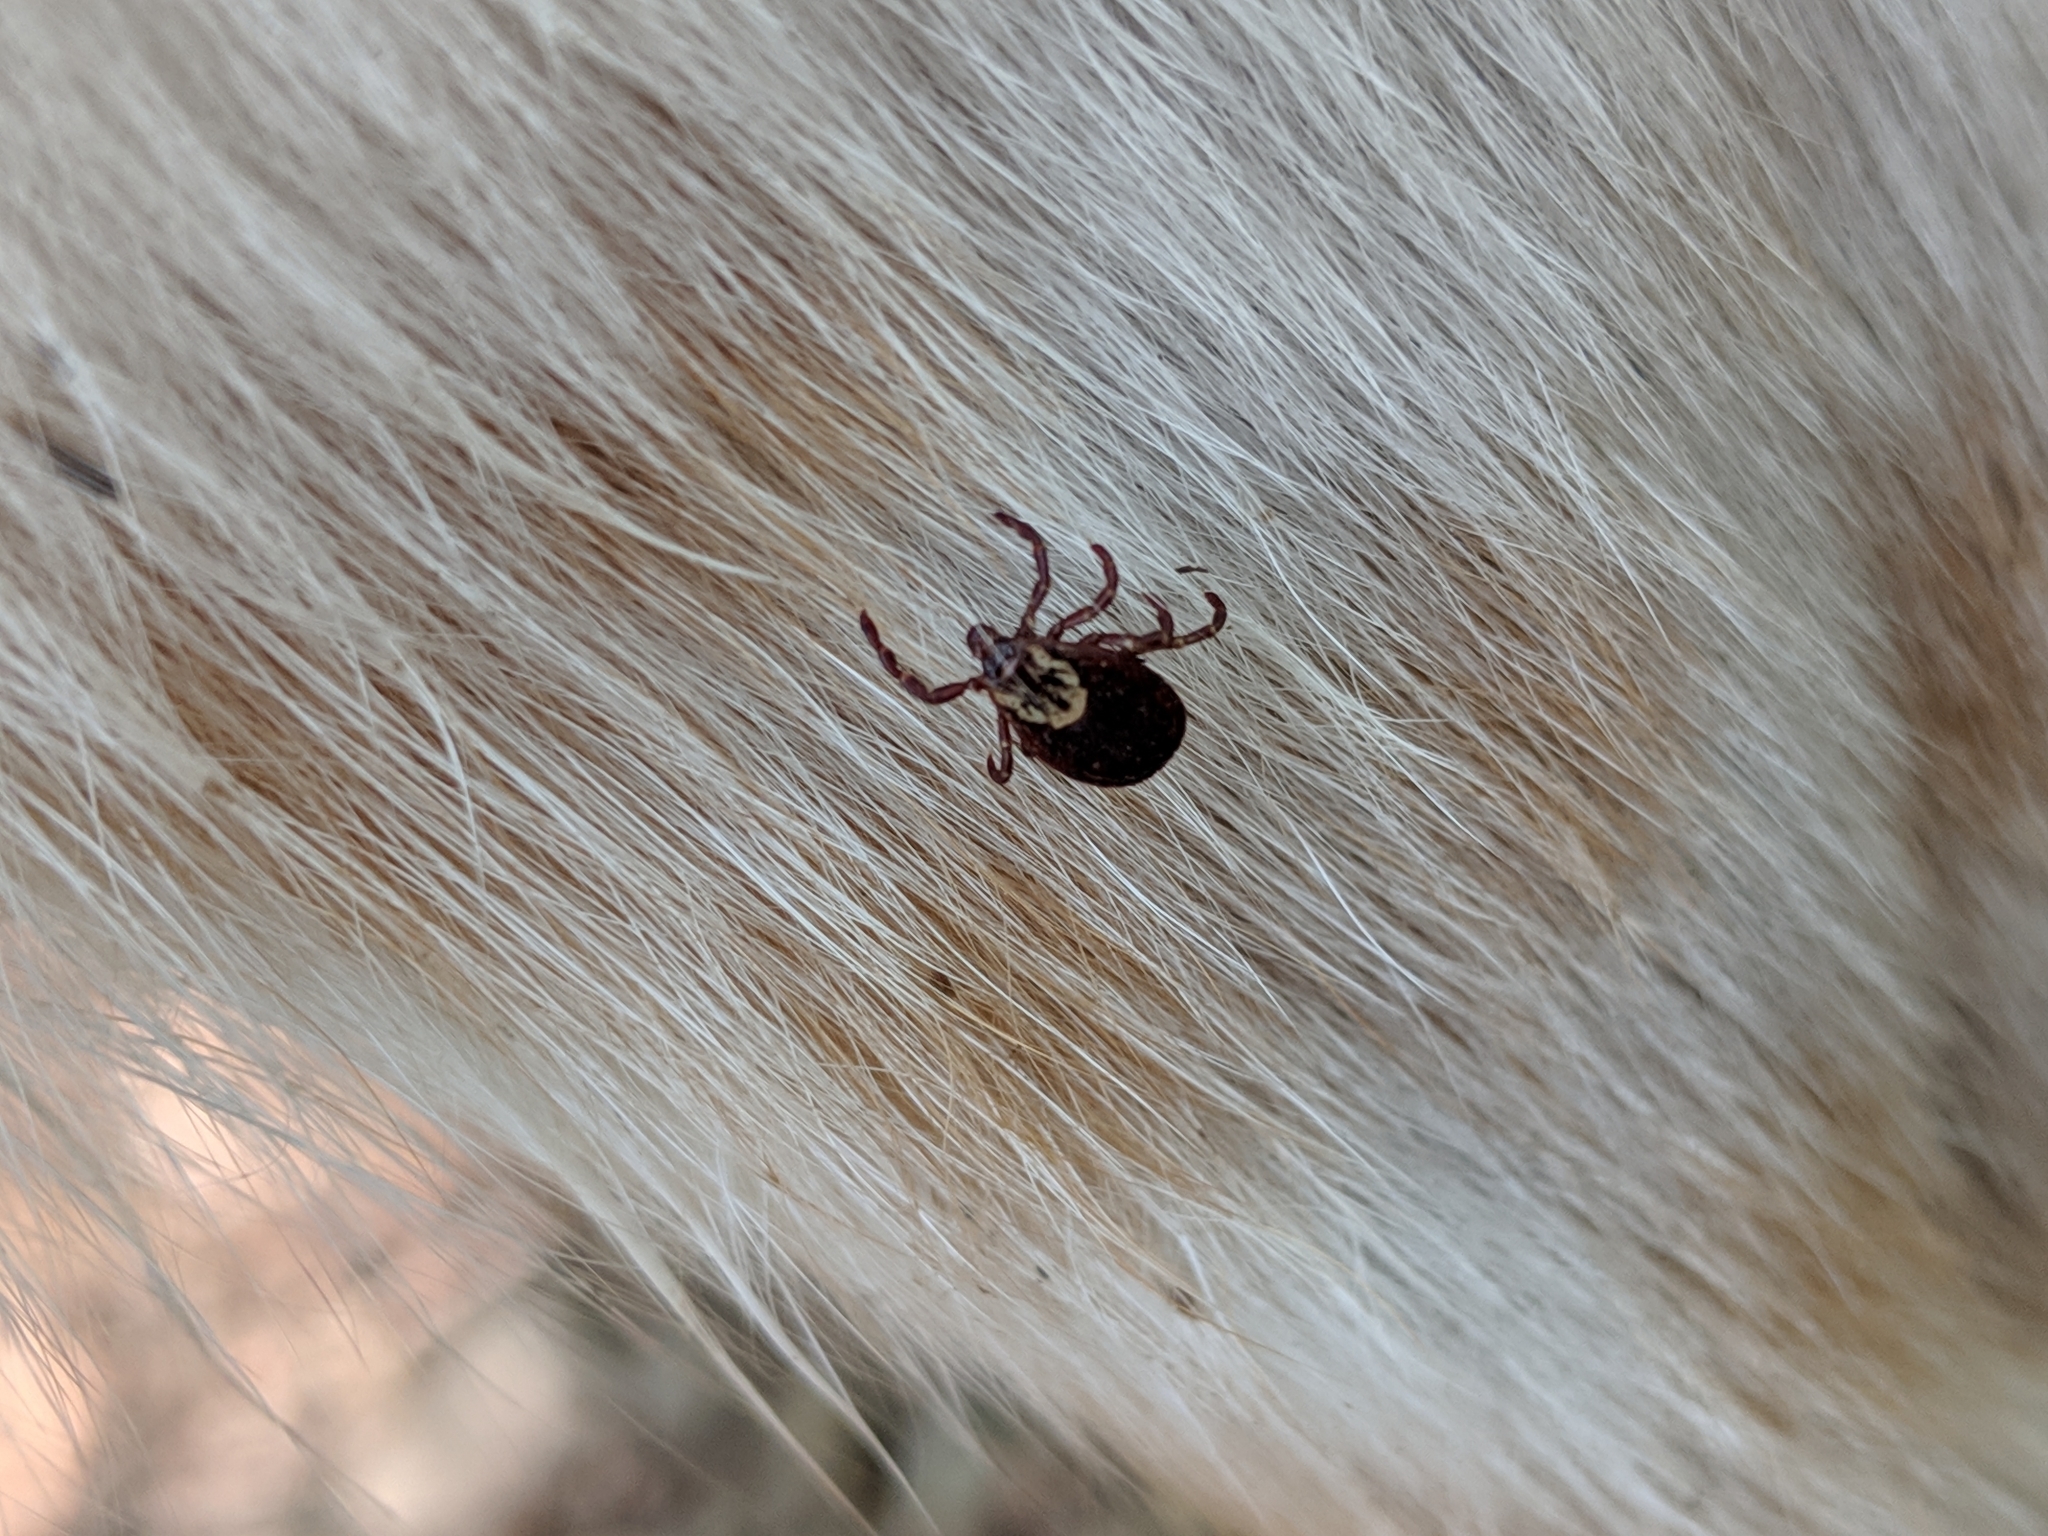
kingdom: Animalia
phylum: Arthropoda
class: Arachnida
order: Ixodida
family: Ixodidae
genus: Dermacentor
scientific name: Dermacentor variabilis
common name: American dog tick
